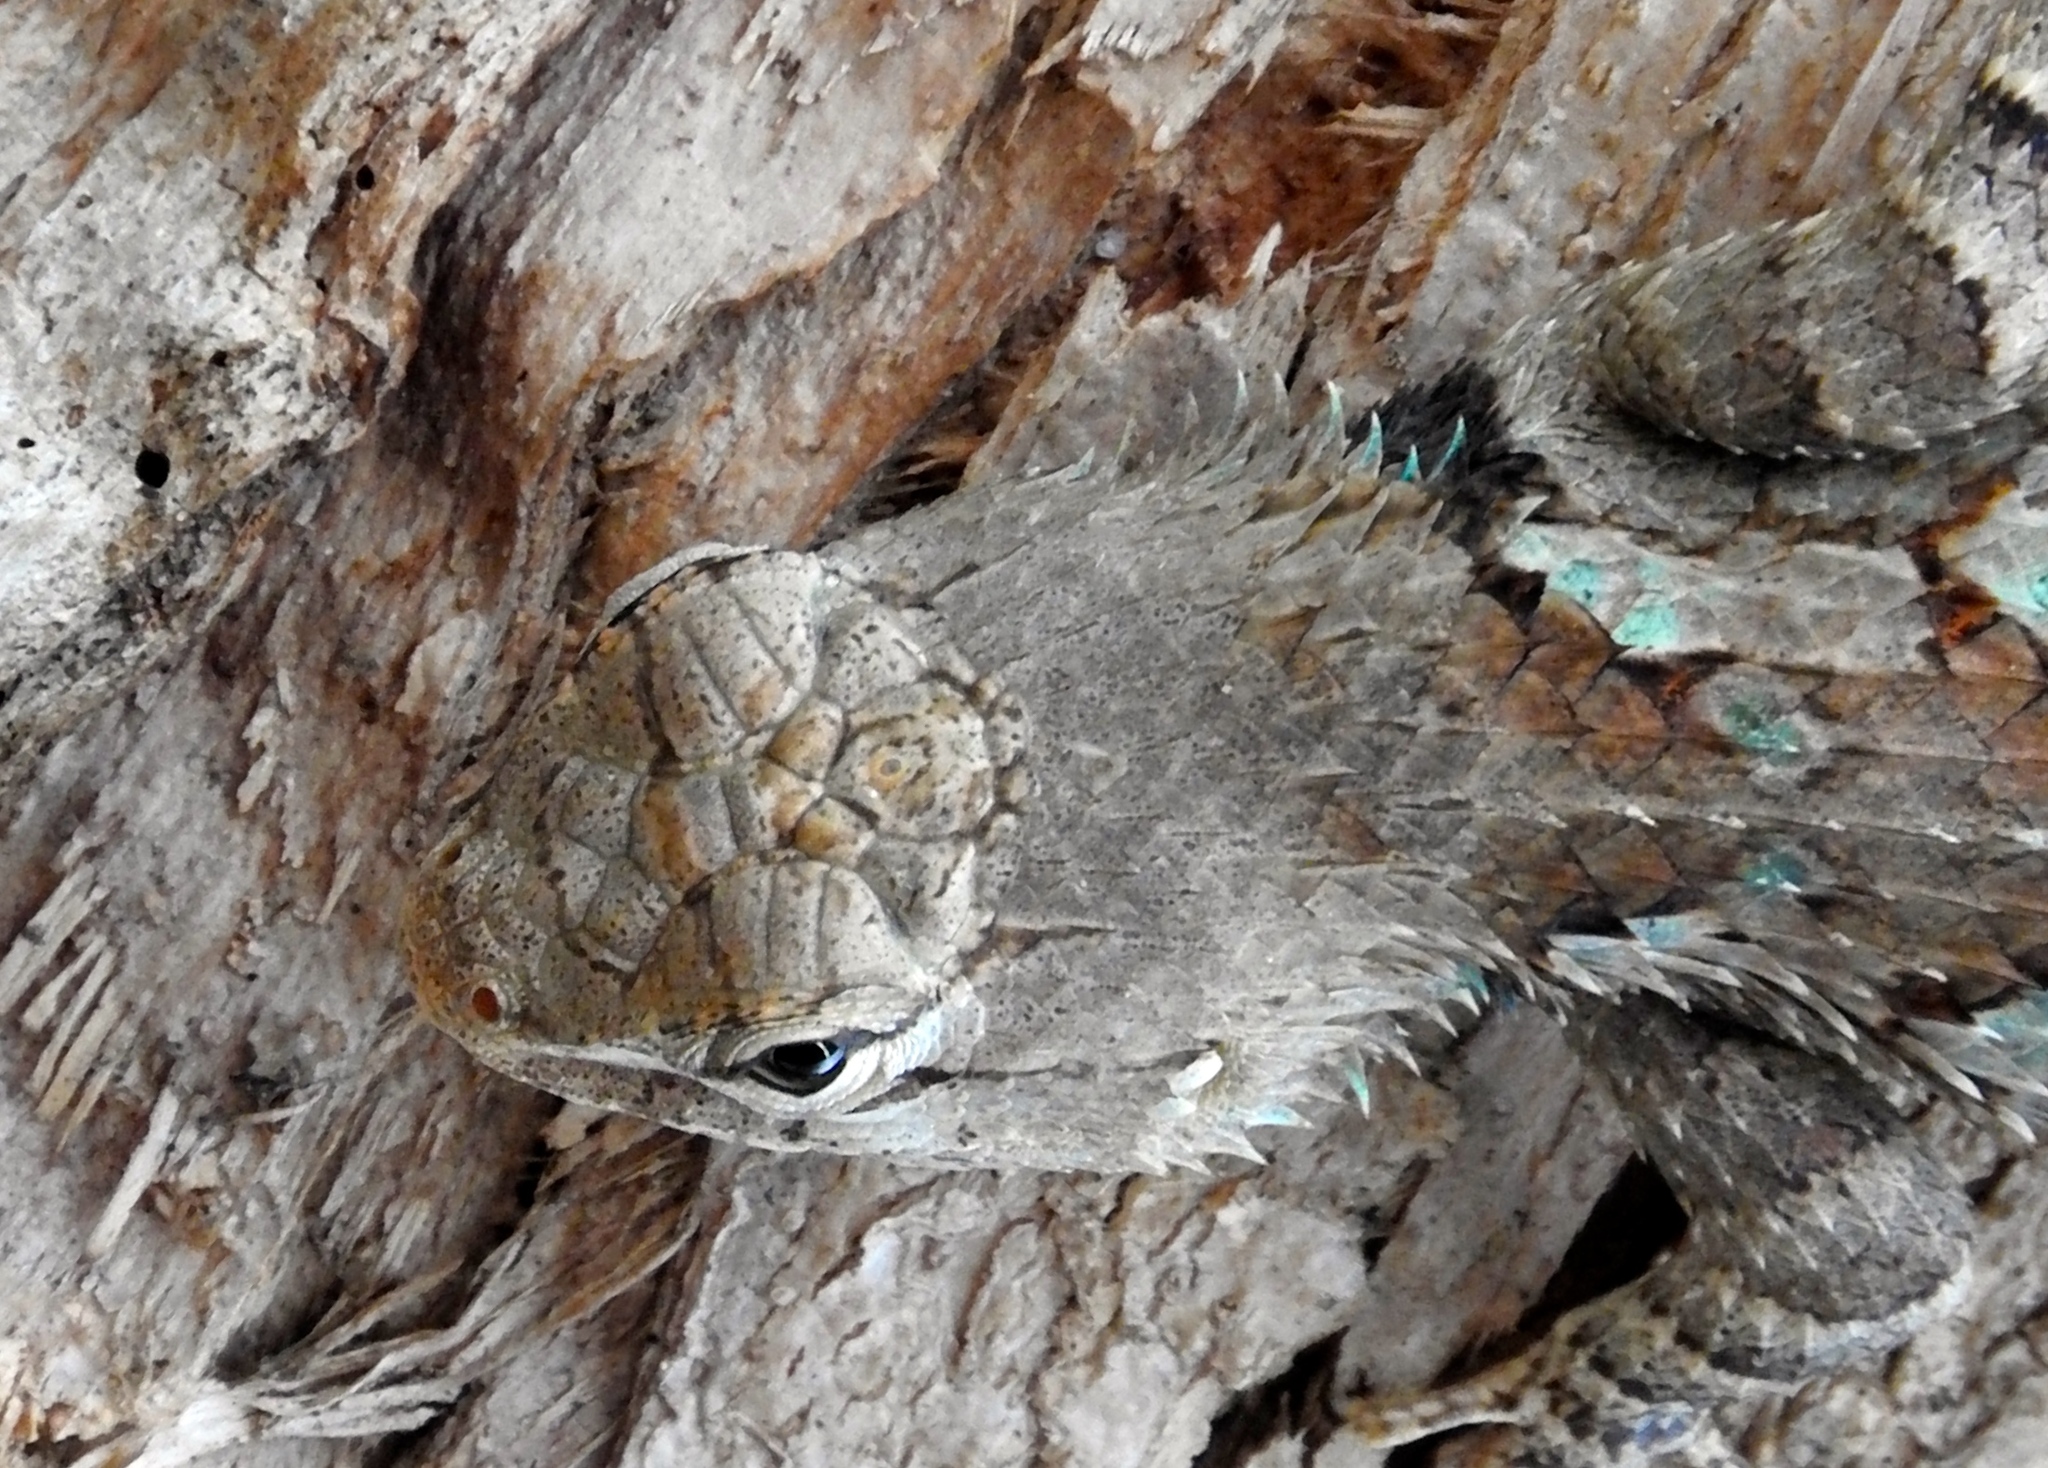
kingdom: Animalia
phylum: Chordata
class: Squamata
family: Phrynosomatidae
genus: Sceloporus
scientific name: Sceloporus clarkii
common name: Clark's spiny lizard
